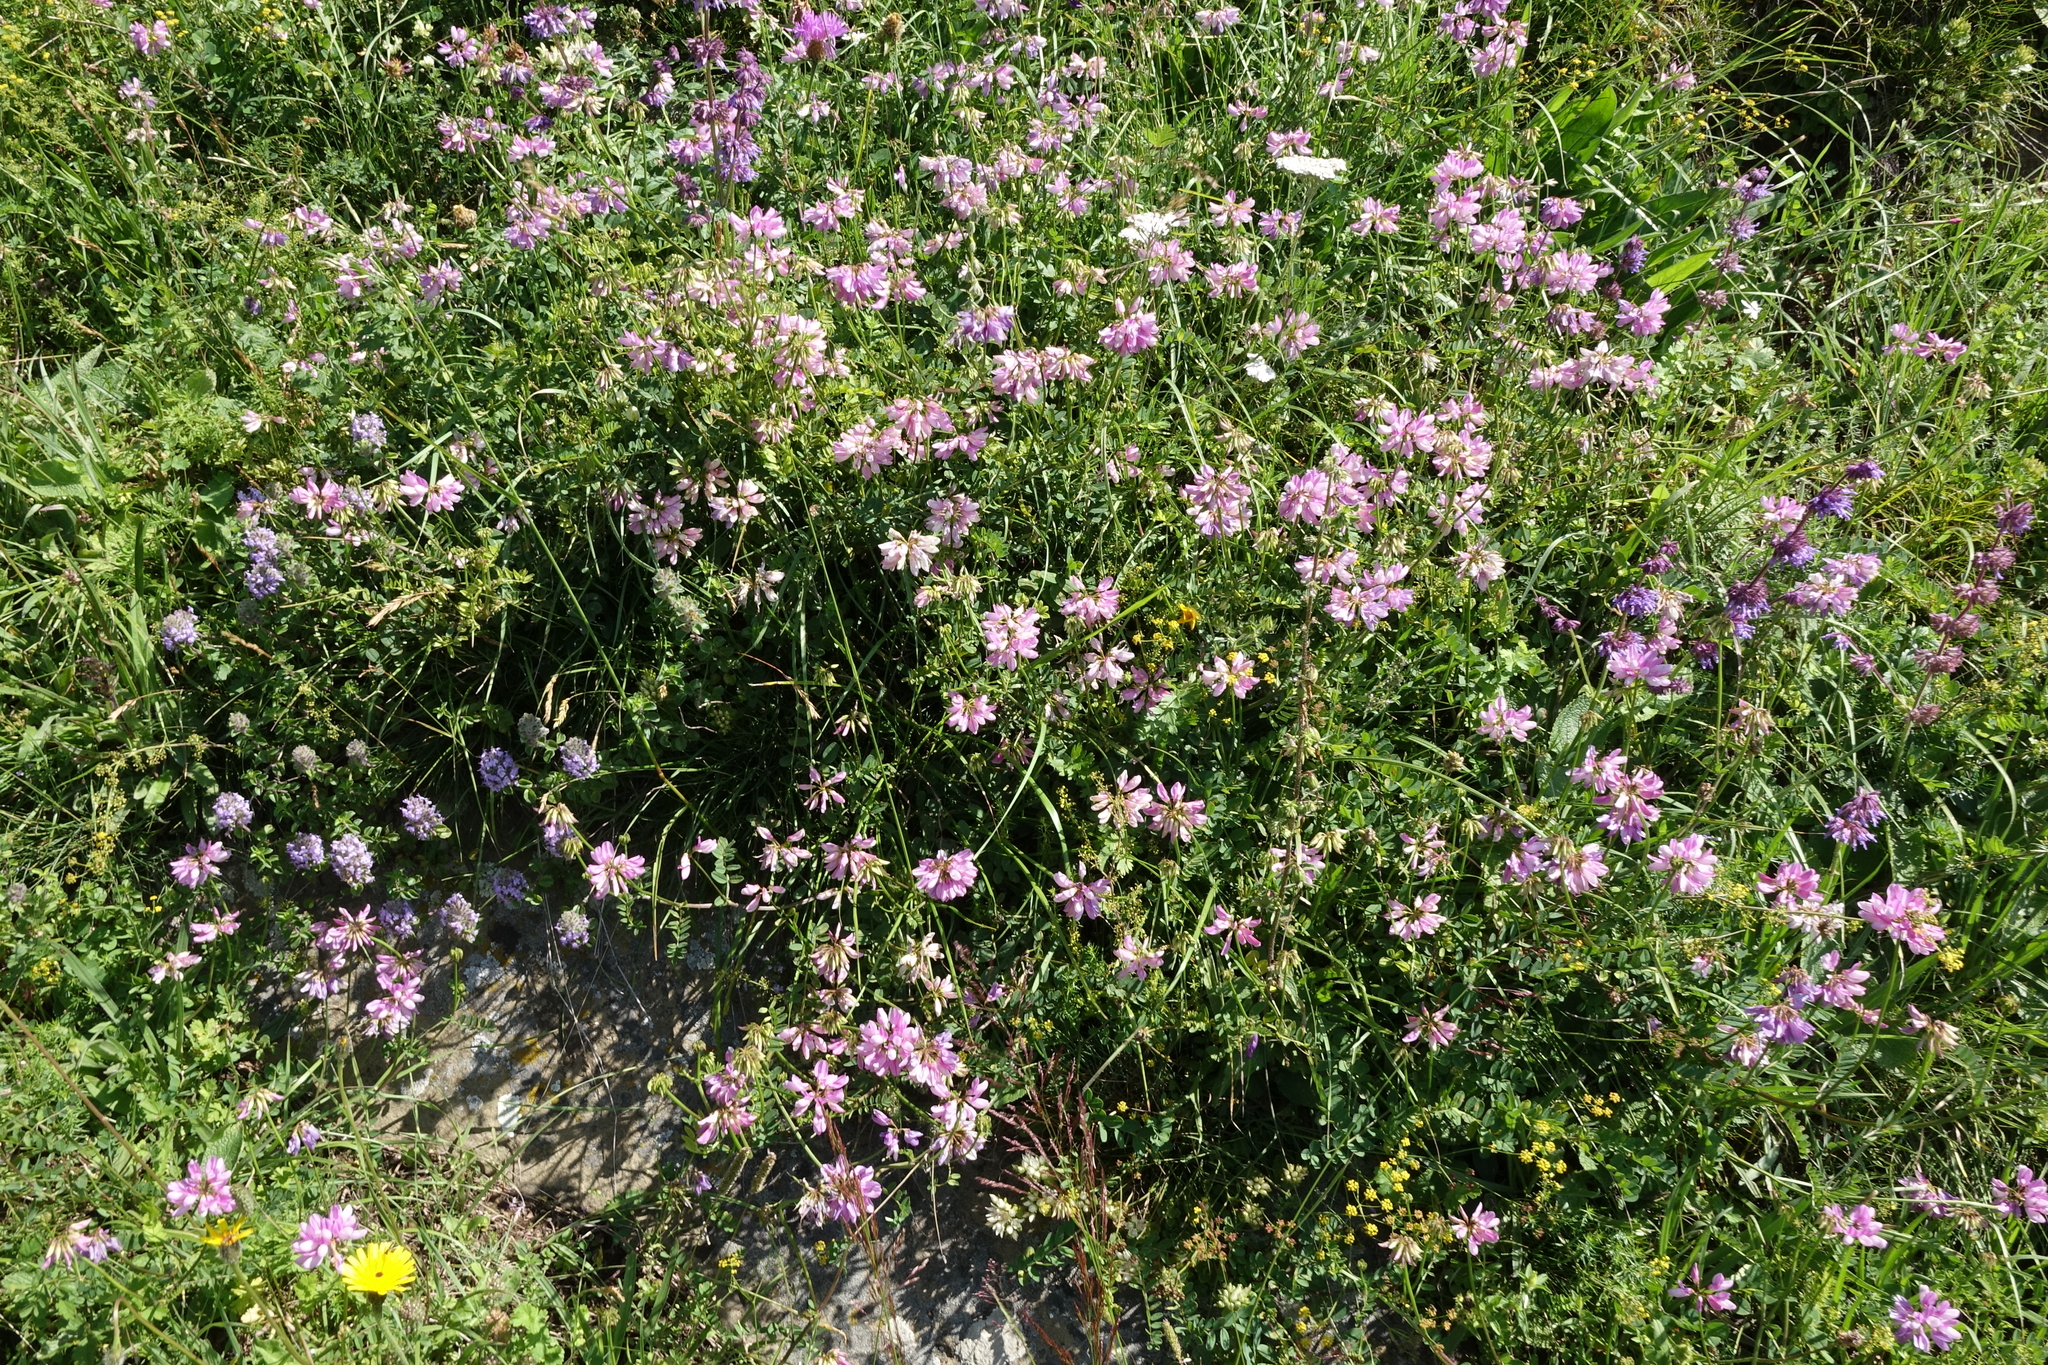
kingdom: Plantae
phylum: Tracheophyta
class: Magnoliopsida
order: Fabales
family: Fabaceae
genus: Coronilla
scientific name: Coronilla varia
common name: Crownvetch
